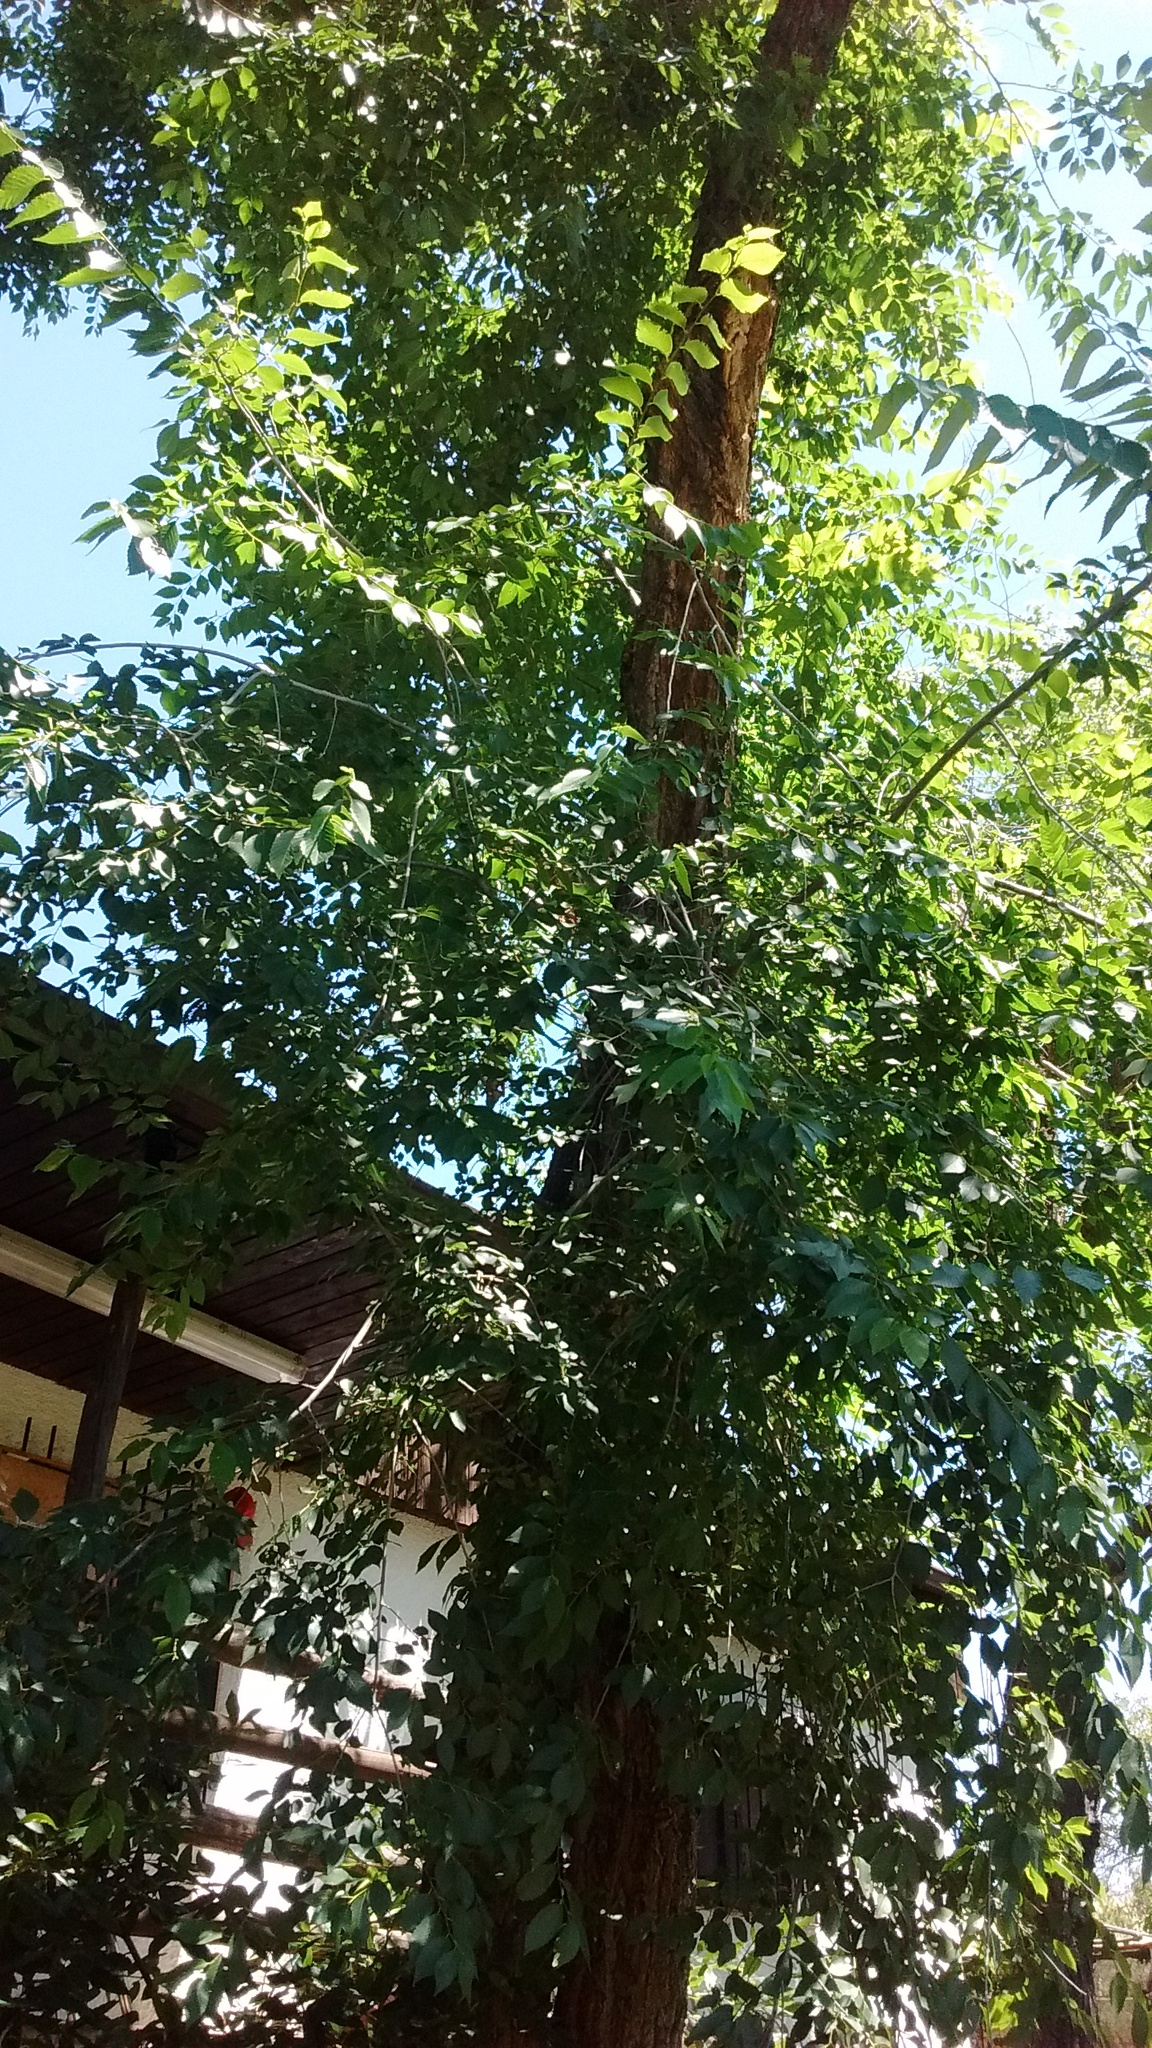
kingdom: Plantae
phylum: Tracheophyta
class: Magnoliopsida
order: Rosales
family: Ulmaceae
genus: Ulmus
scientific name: Ulmus pumila
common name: Siberian elm
